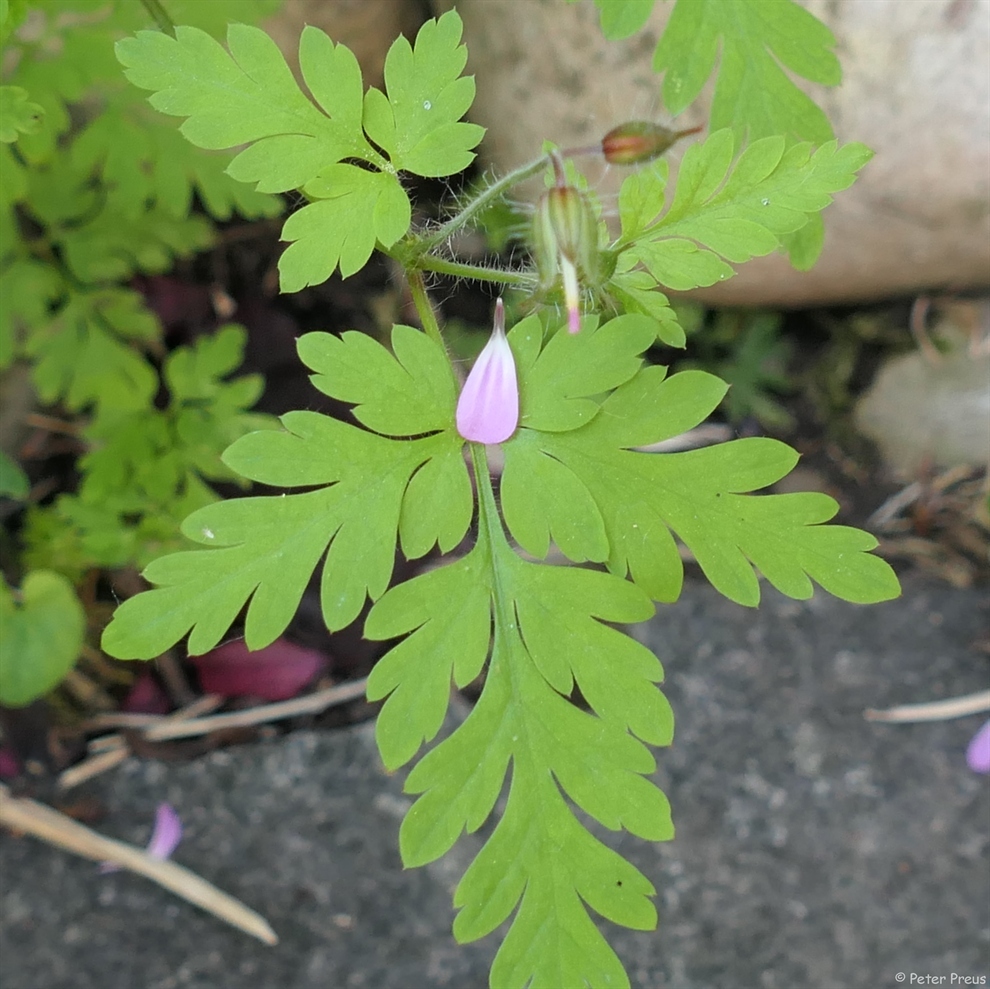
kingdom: Plantae
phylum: Tracheophyta
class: Magnoliopsida
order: Geraniales
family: Geraniaceae
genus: Geranium
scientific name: Geranium robertianum
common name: Herb-robert
